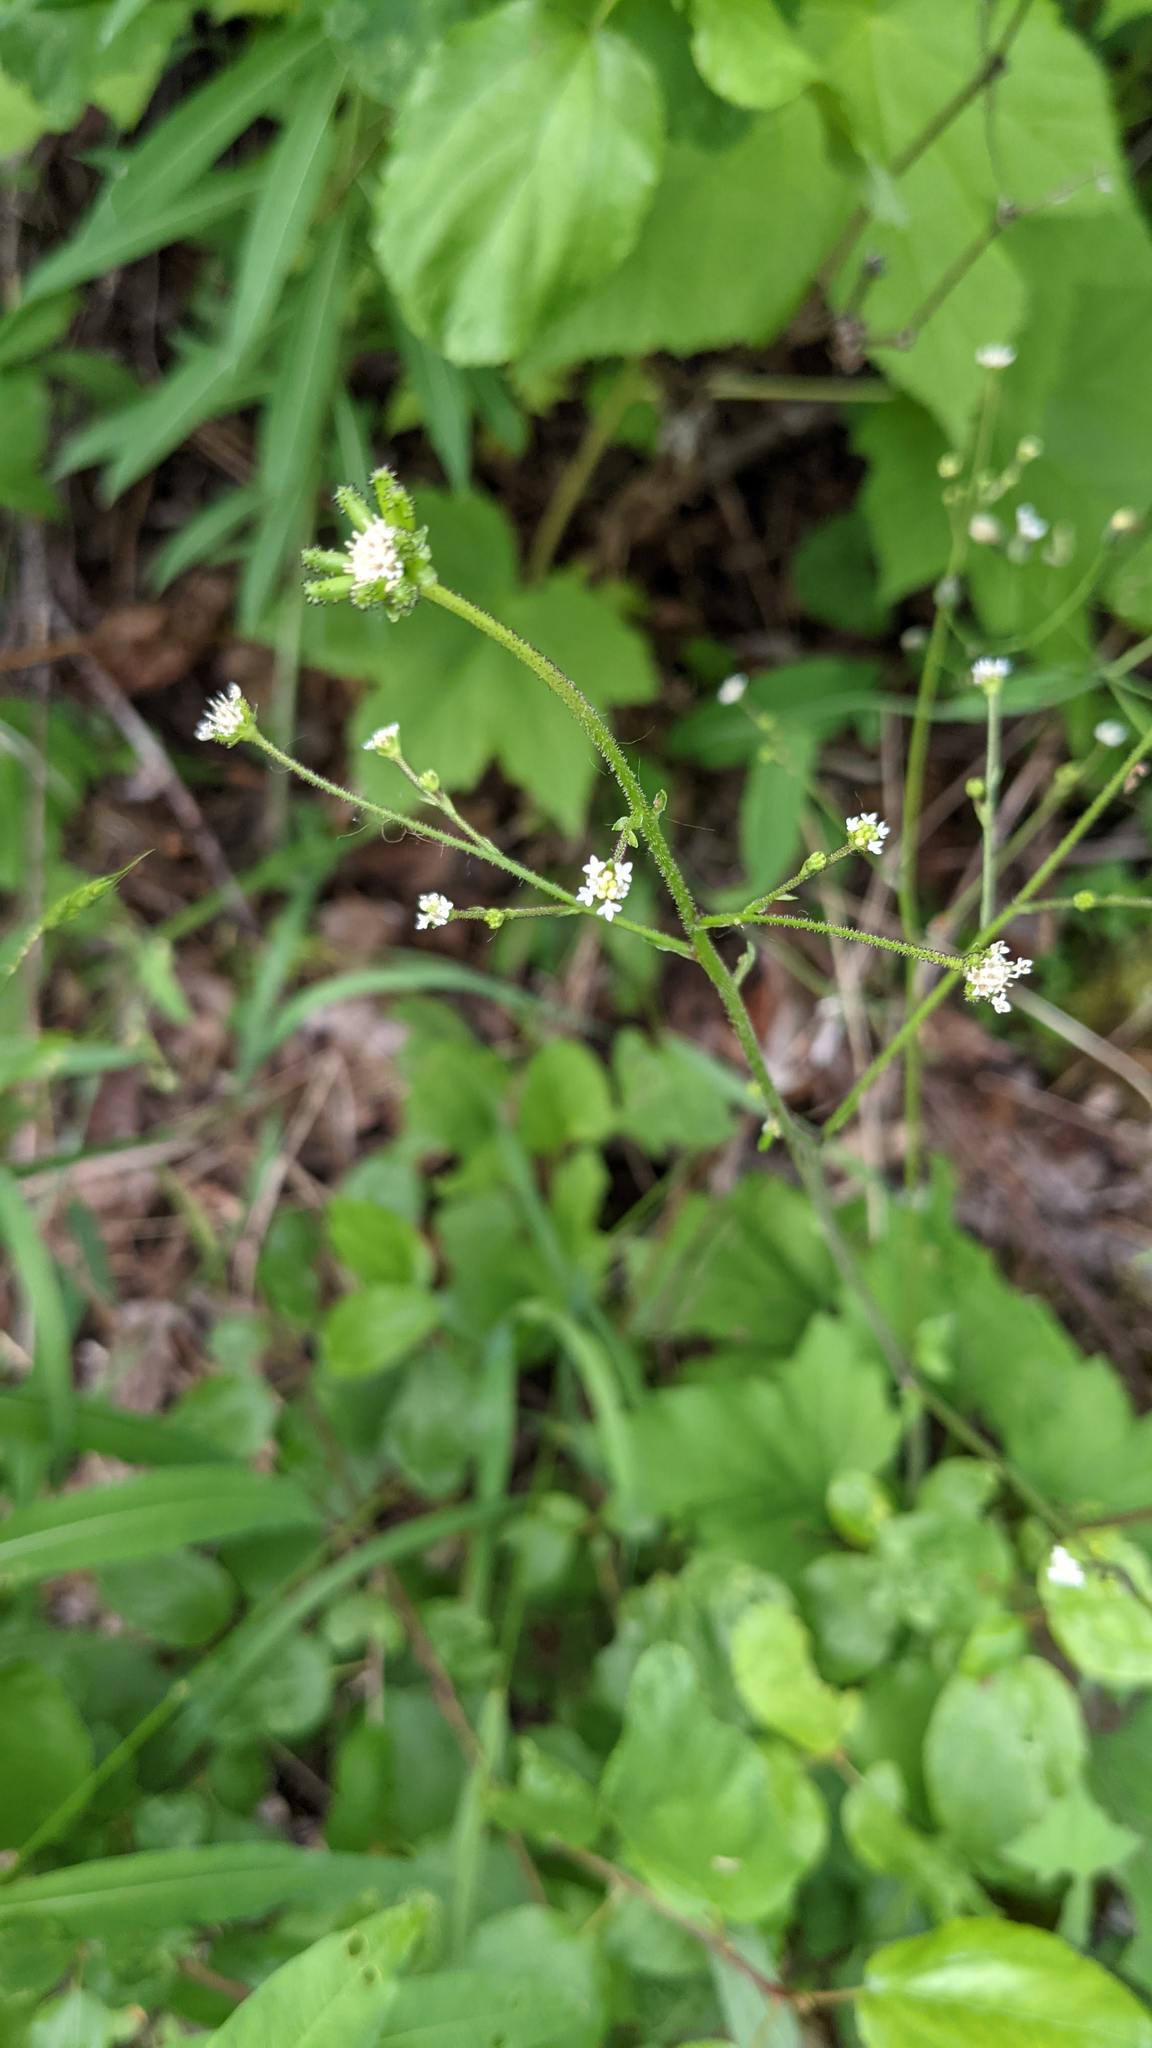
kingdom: Plantae
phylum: Tracheophyta
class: Magnoliopsida
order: Asterales
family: Asteraceae
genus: Adenocaulon
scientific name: Adenocaulon bicolor
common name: Trailplant
